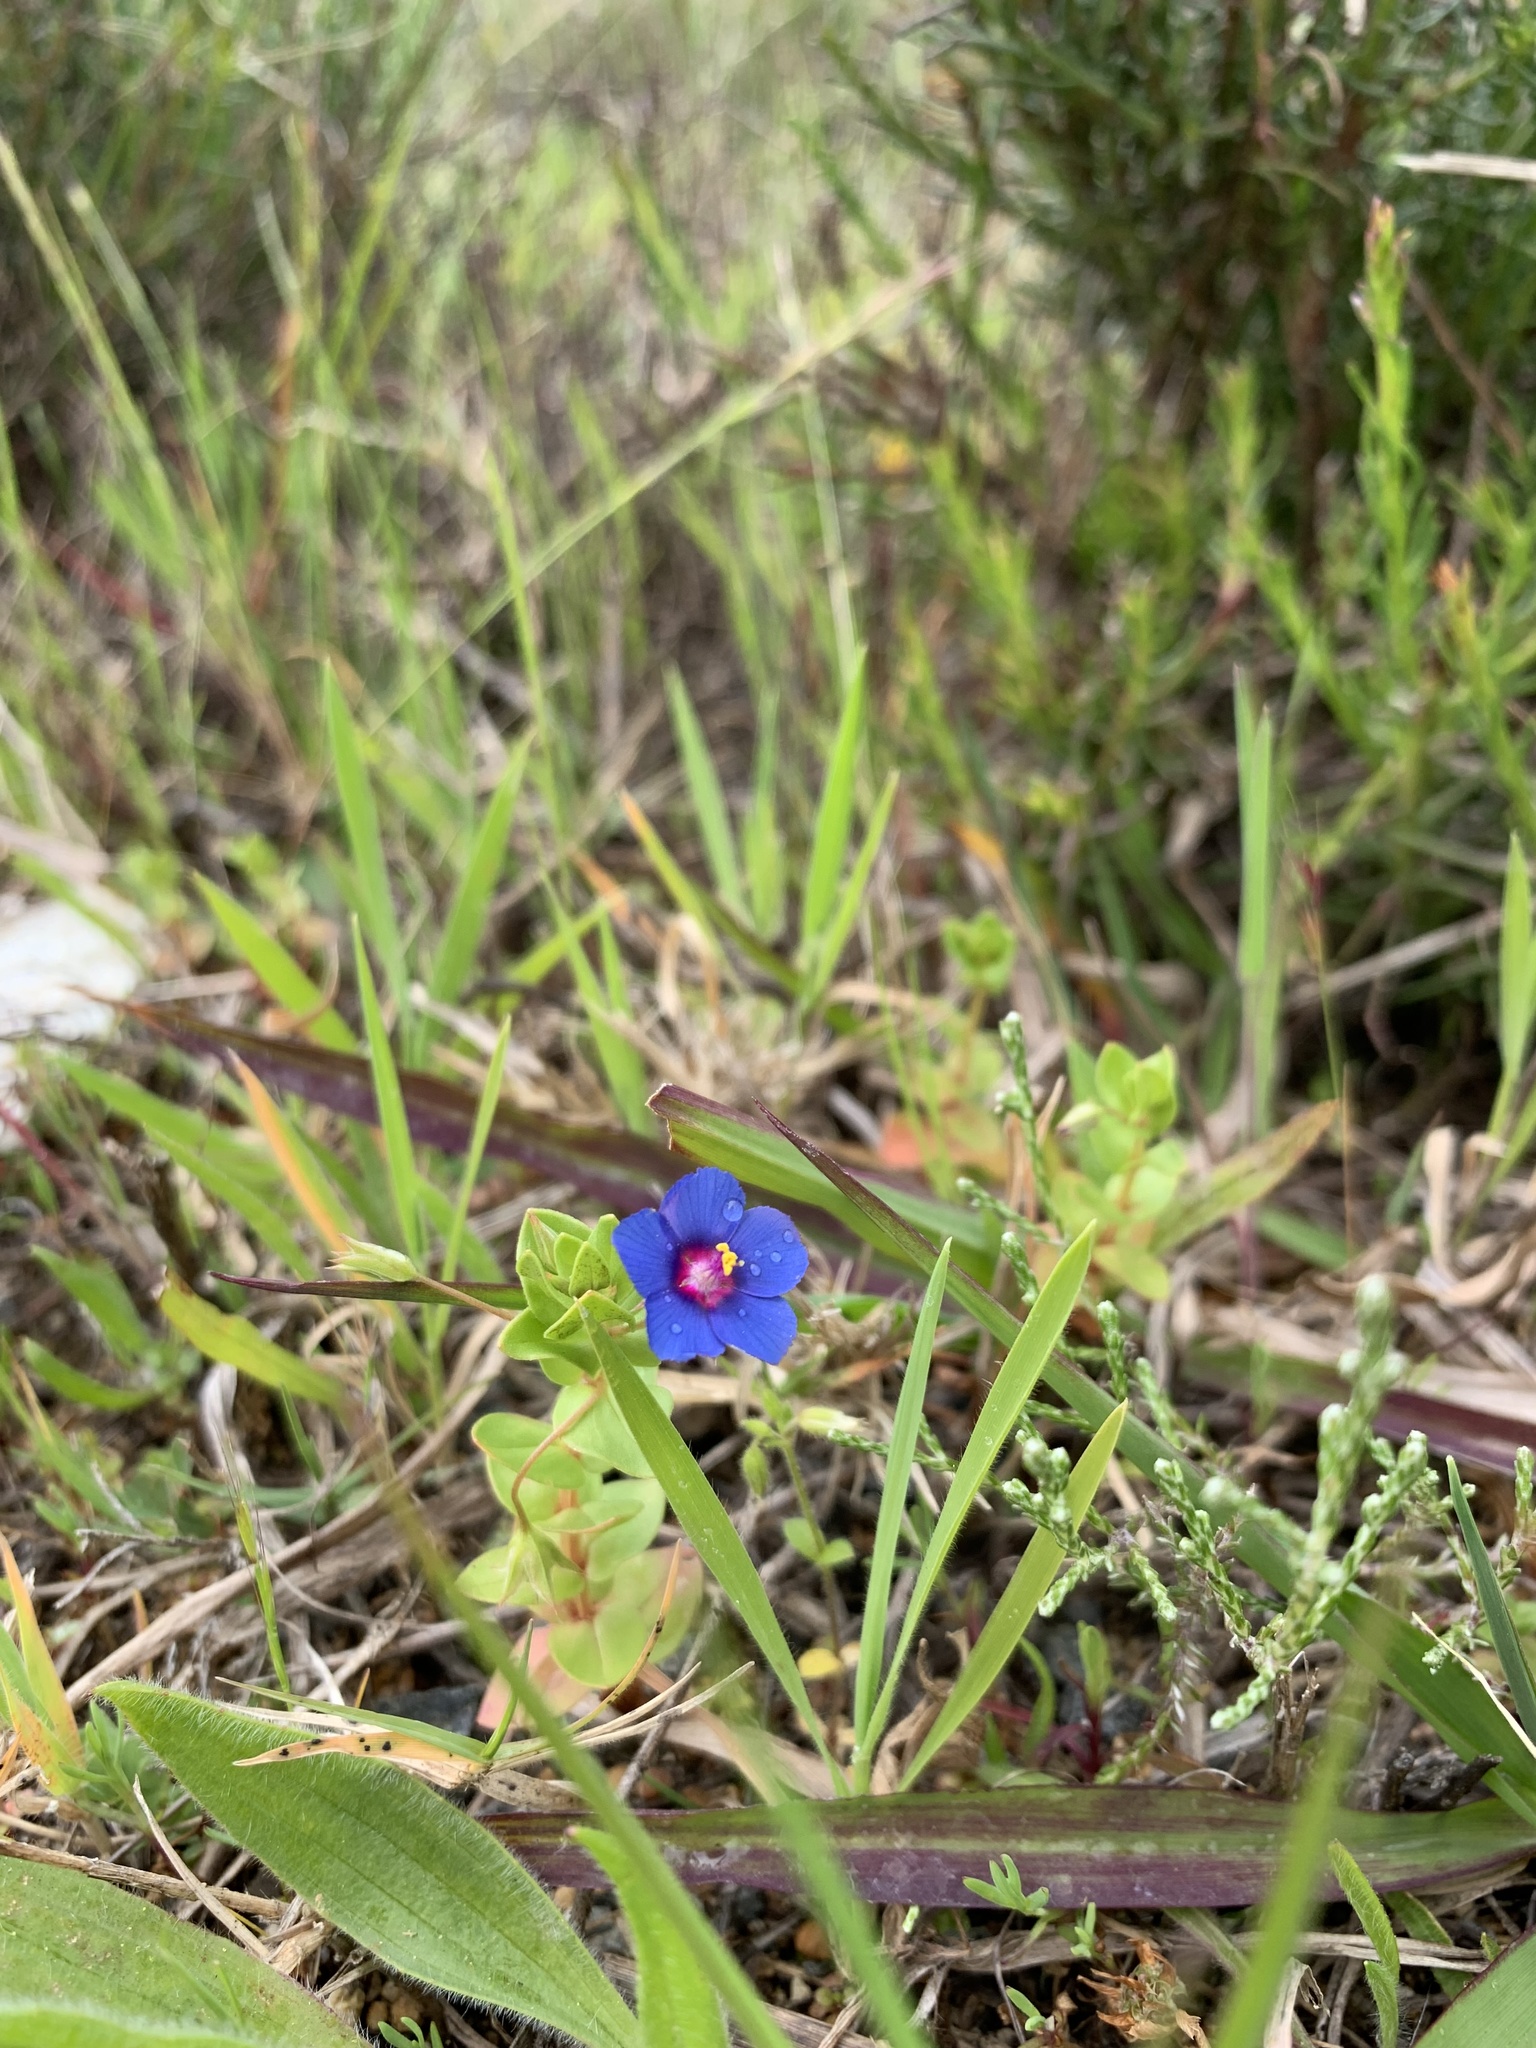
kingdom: Plantae
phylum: Tracheophyta
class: Magnoliopsida
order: Ericales
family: Primulaceae
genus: Lysimachia
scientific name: Lysimachia loeflingii
